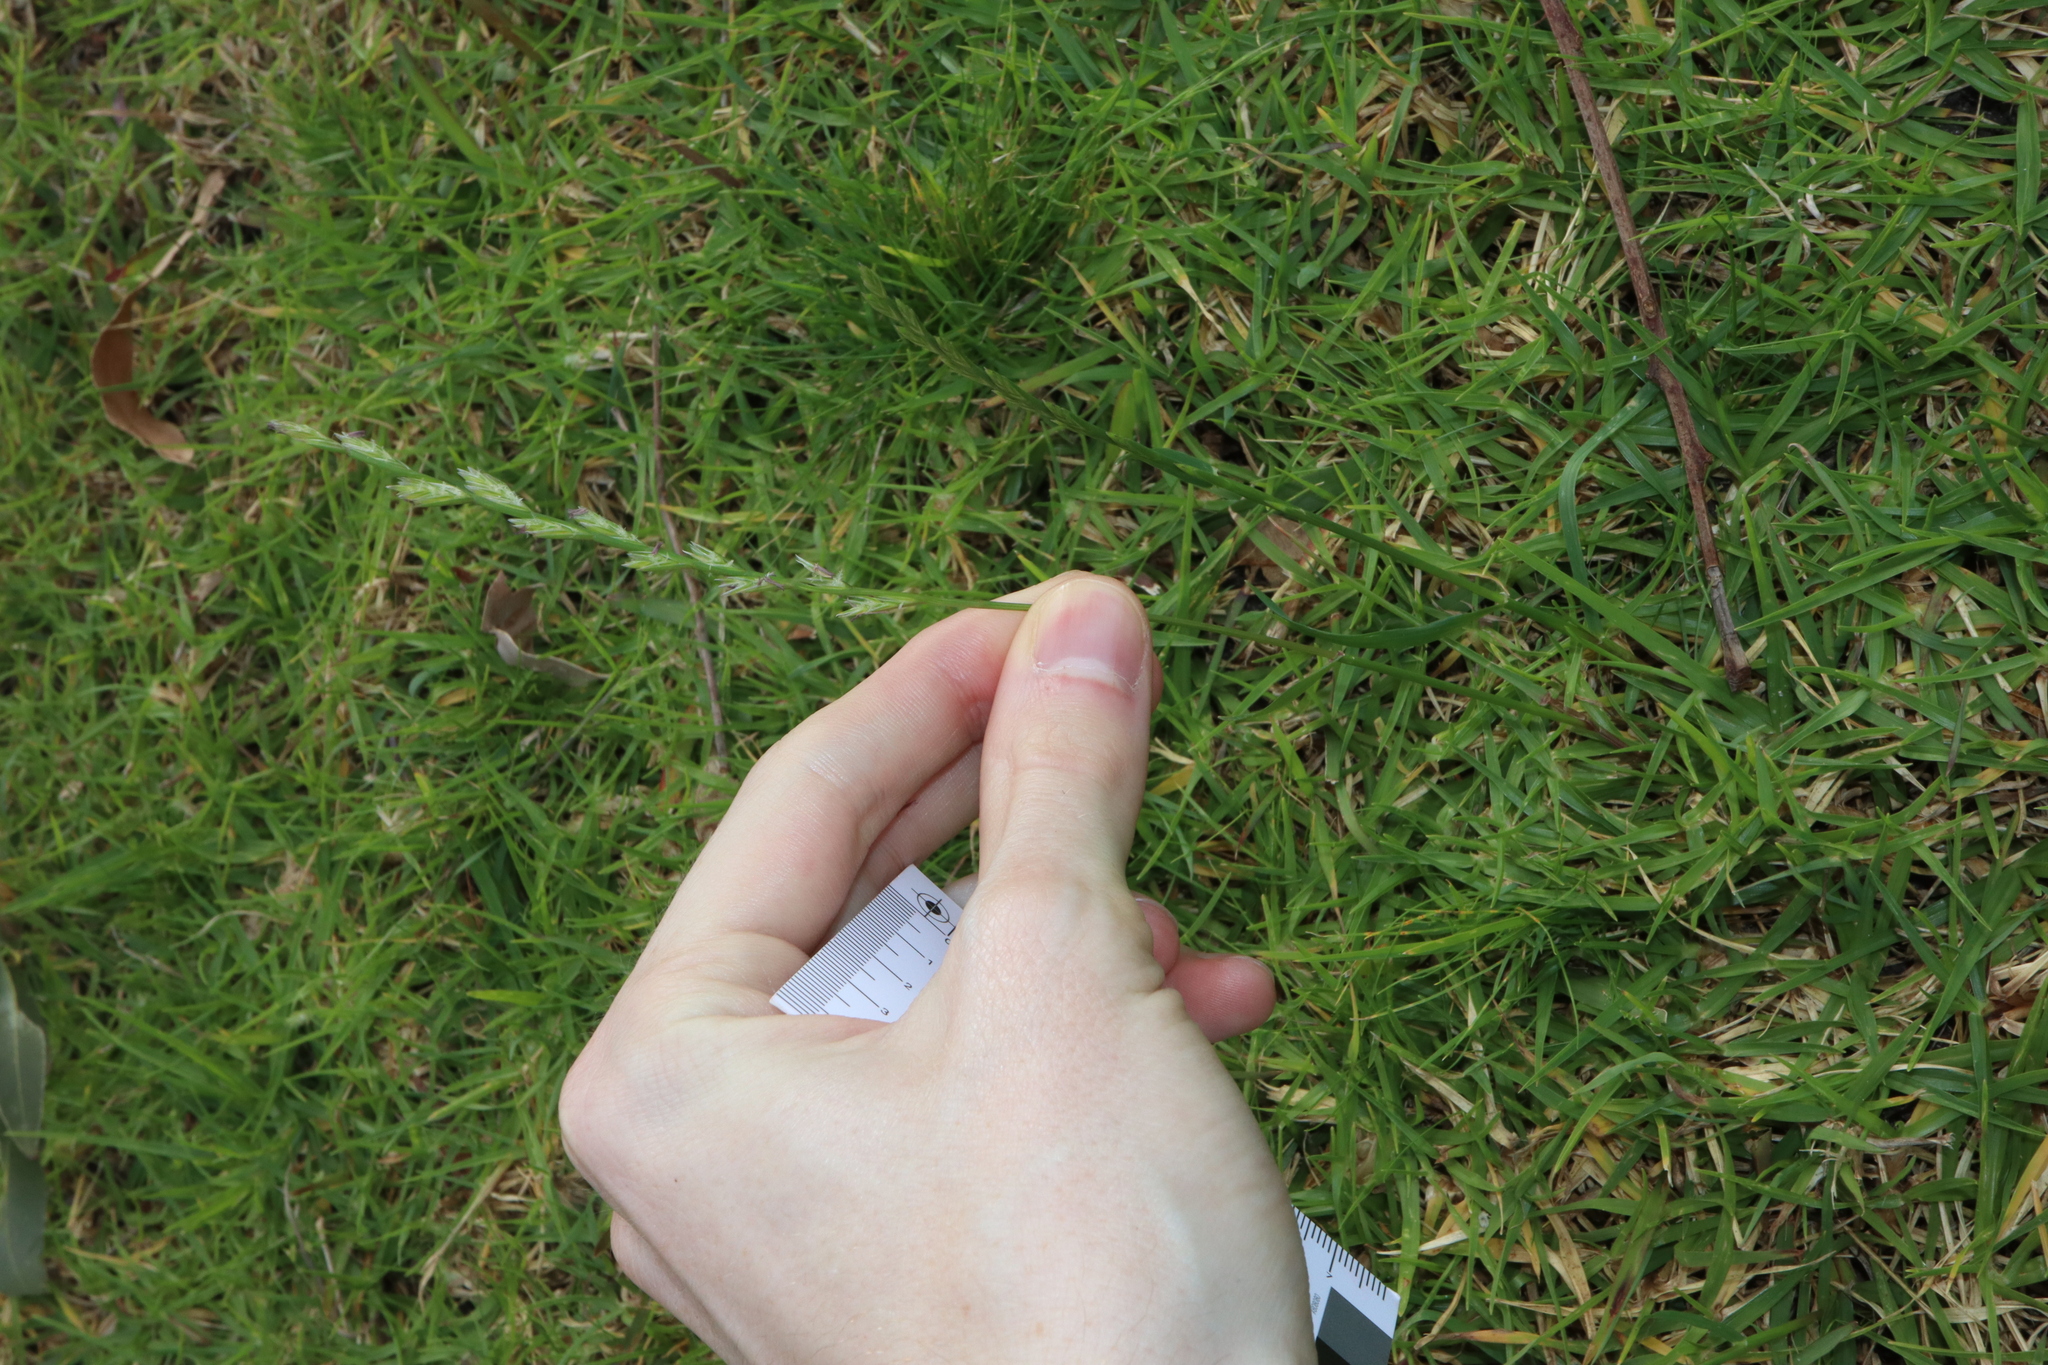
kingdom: Plantae
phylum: Tracheophyta
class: Liliopsida
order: Poales
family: Poaceae
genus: Lolium
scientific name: Lolium rigidum
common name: Wimmera ryegrass
